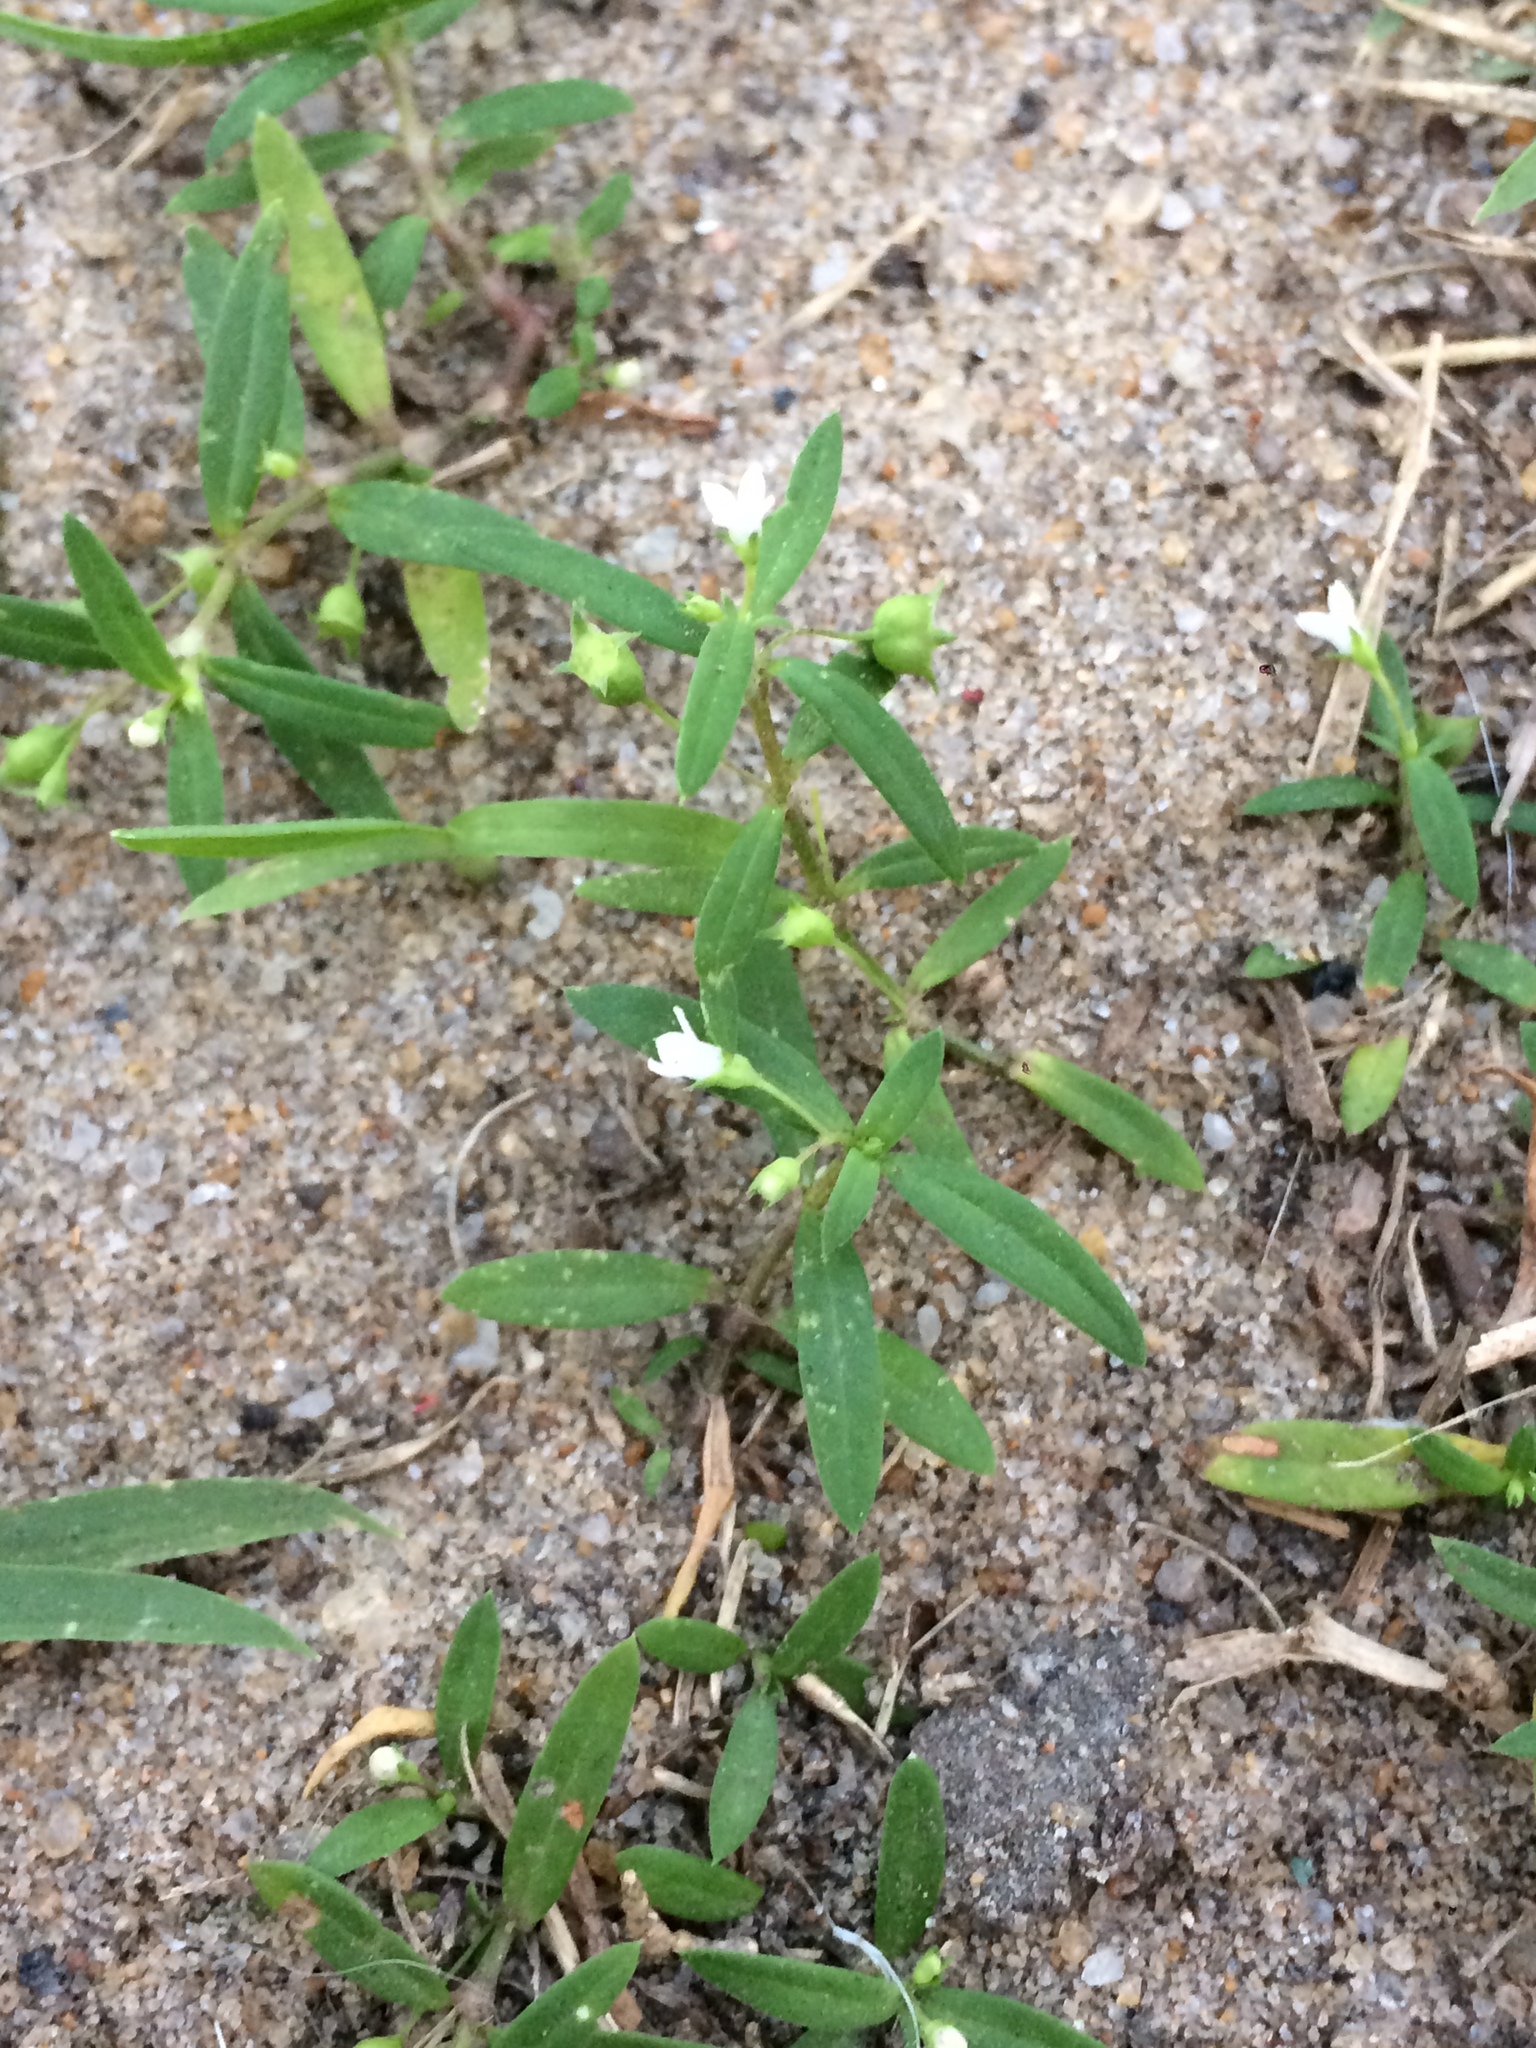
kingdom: Plantae
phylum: Tracheophyta
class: Magnoliopsida
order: Gentianales
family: Rubiaceae
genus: Oldenlandia
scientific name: Oldenlandia corymbosa
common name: Flat-top mille graines
